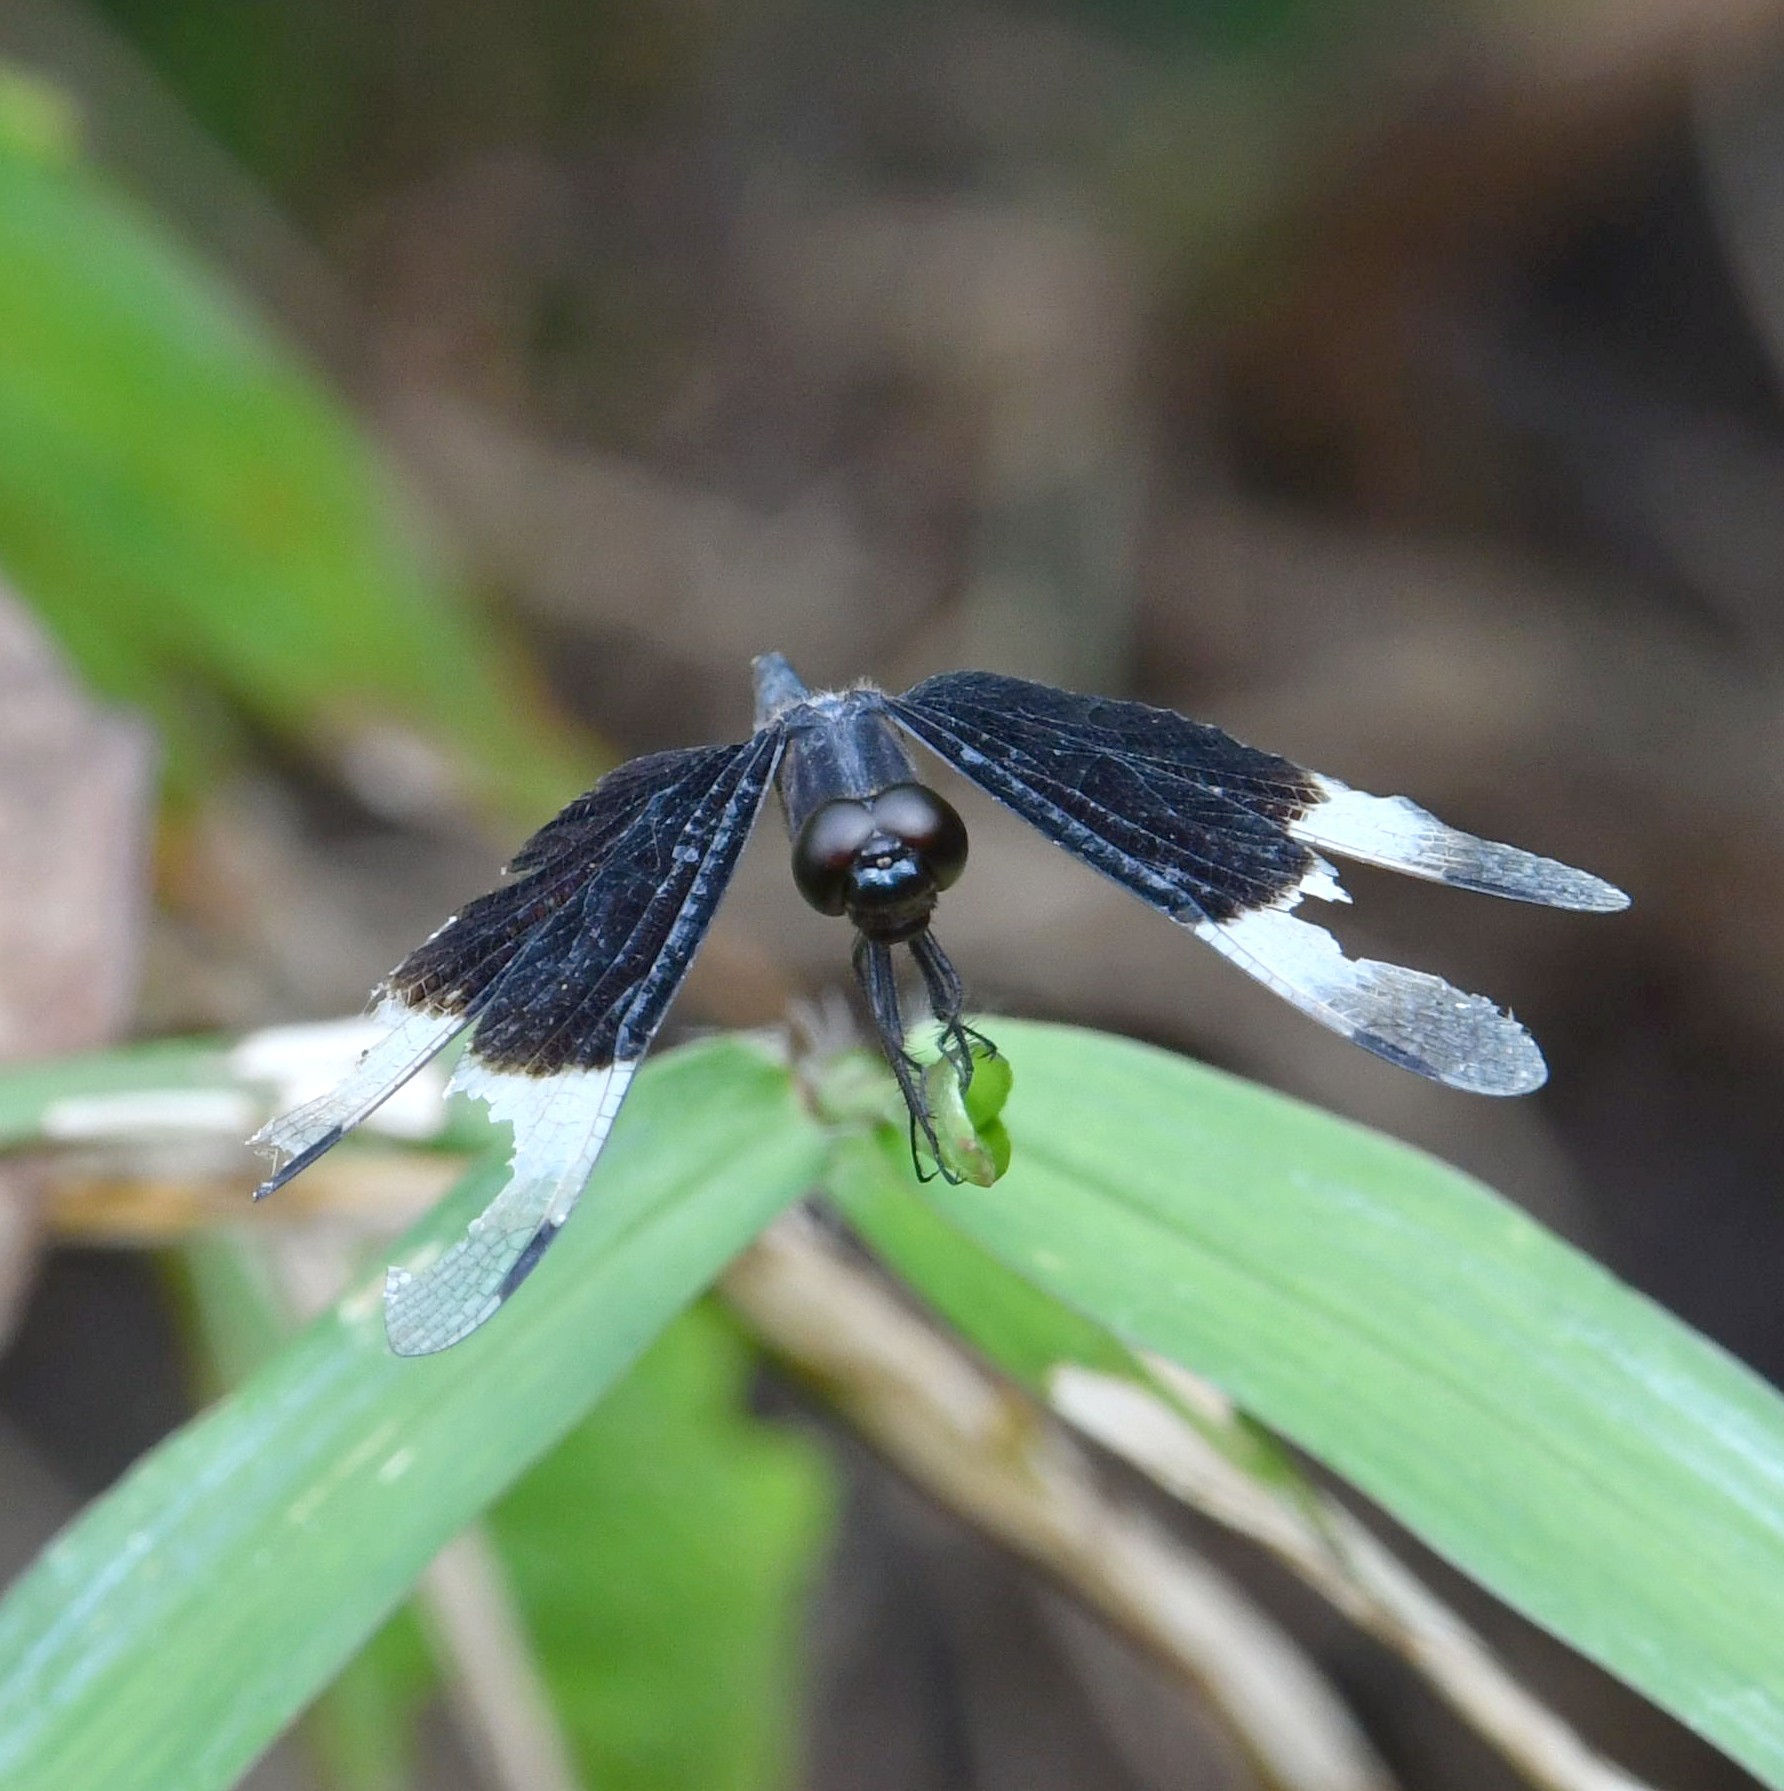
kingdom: Animalia
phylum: Arthropoda
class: Insecta
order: Odonata
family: Libellulidae
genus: Neurothemis
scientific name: Neurothemis tullia
